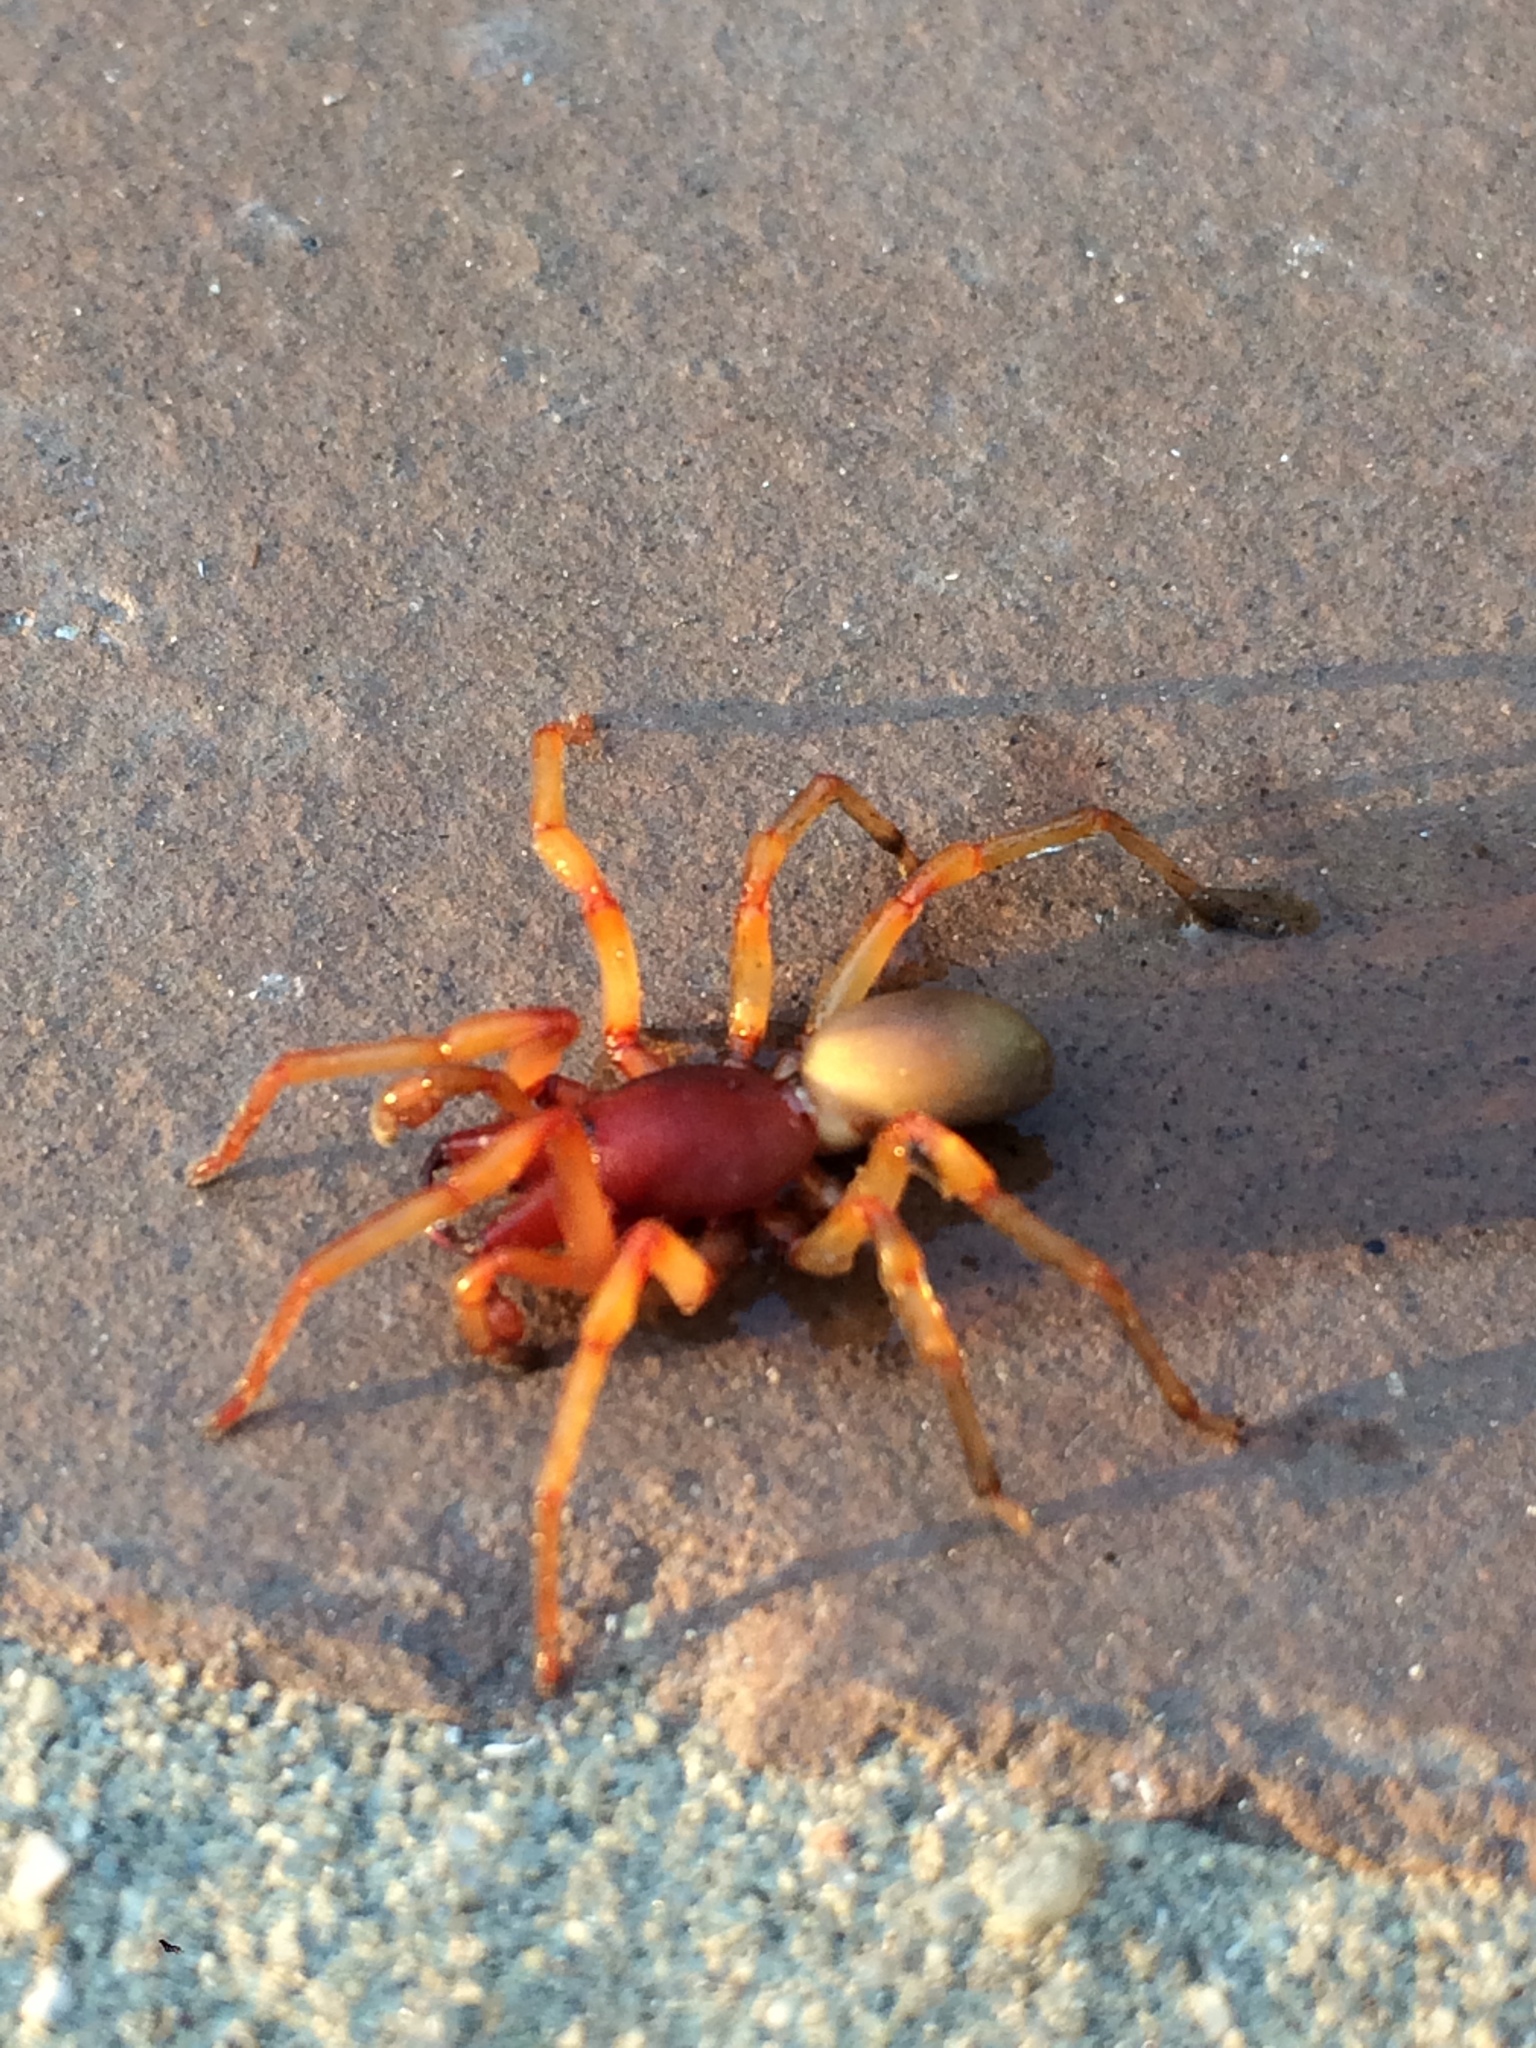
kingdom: Animalia
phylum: Arthropoda
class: Arachnida
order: Araneae
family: Dysderidae
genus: Dysdera
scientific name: Dysdera crocata
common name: Woodlouse spider
